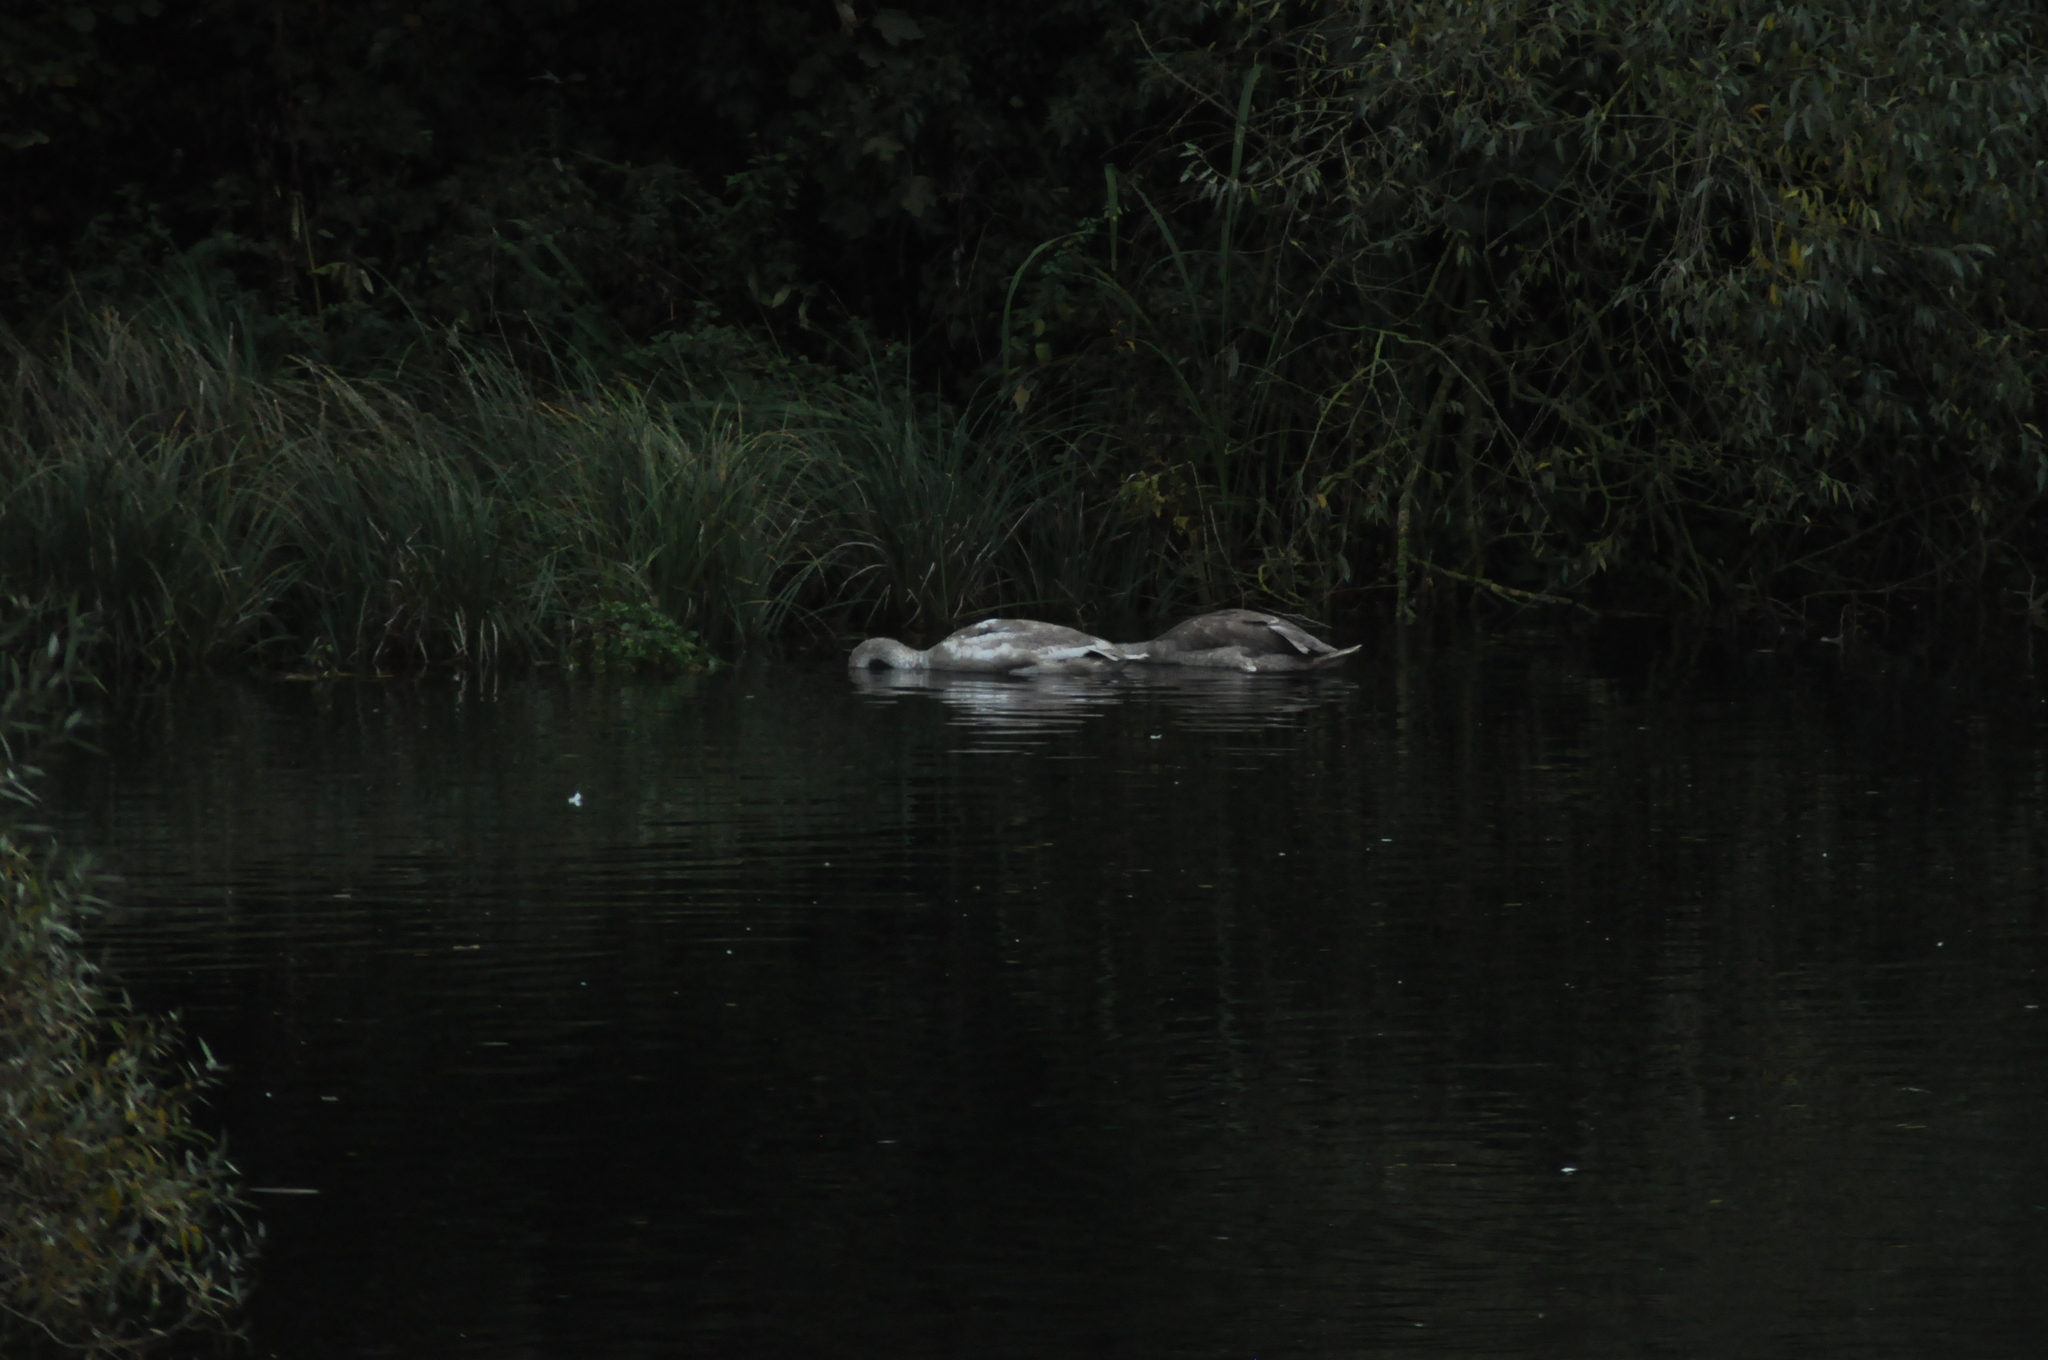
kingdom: Animalia
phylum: Chordata
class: Aves
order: Anseriformes
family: Anatidae
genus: Cygnus
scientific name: Cygnus olor
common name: Mute swan
